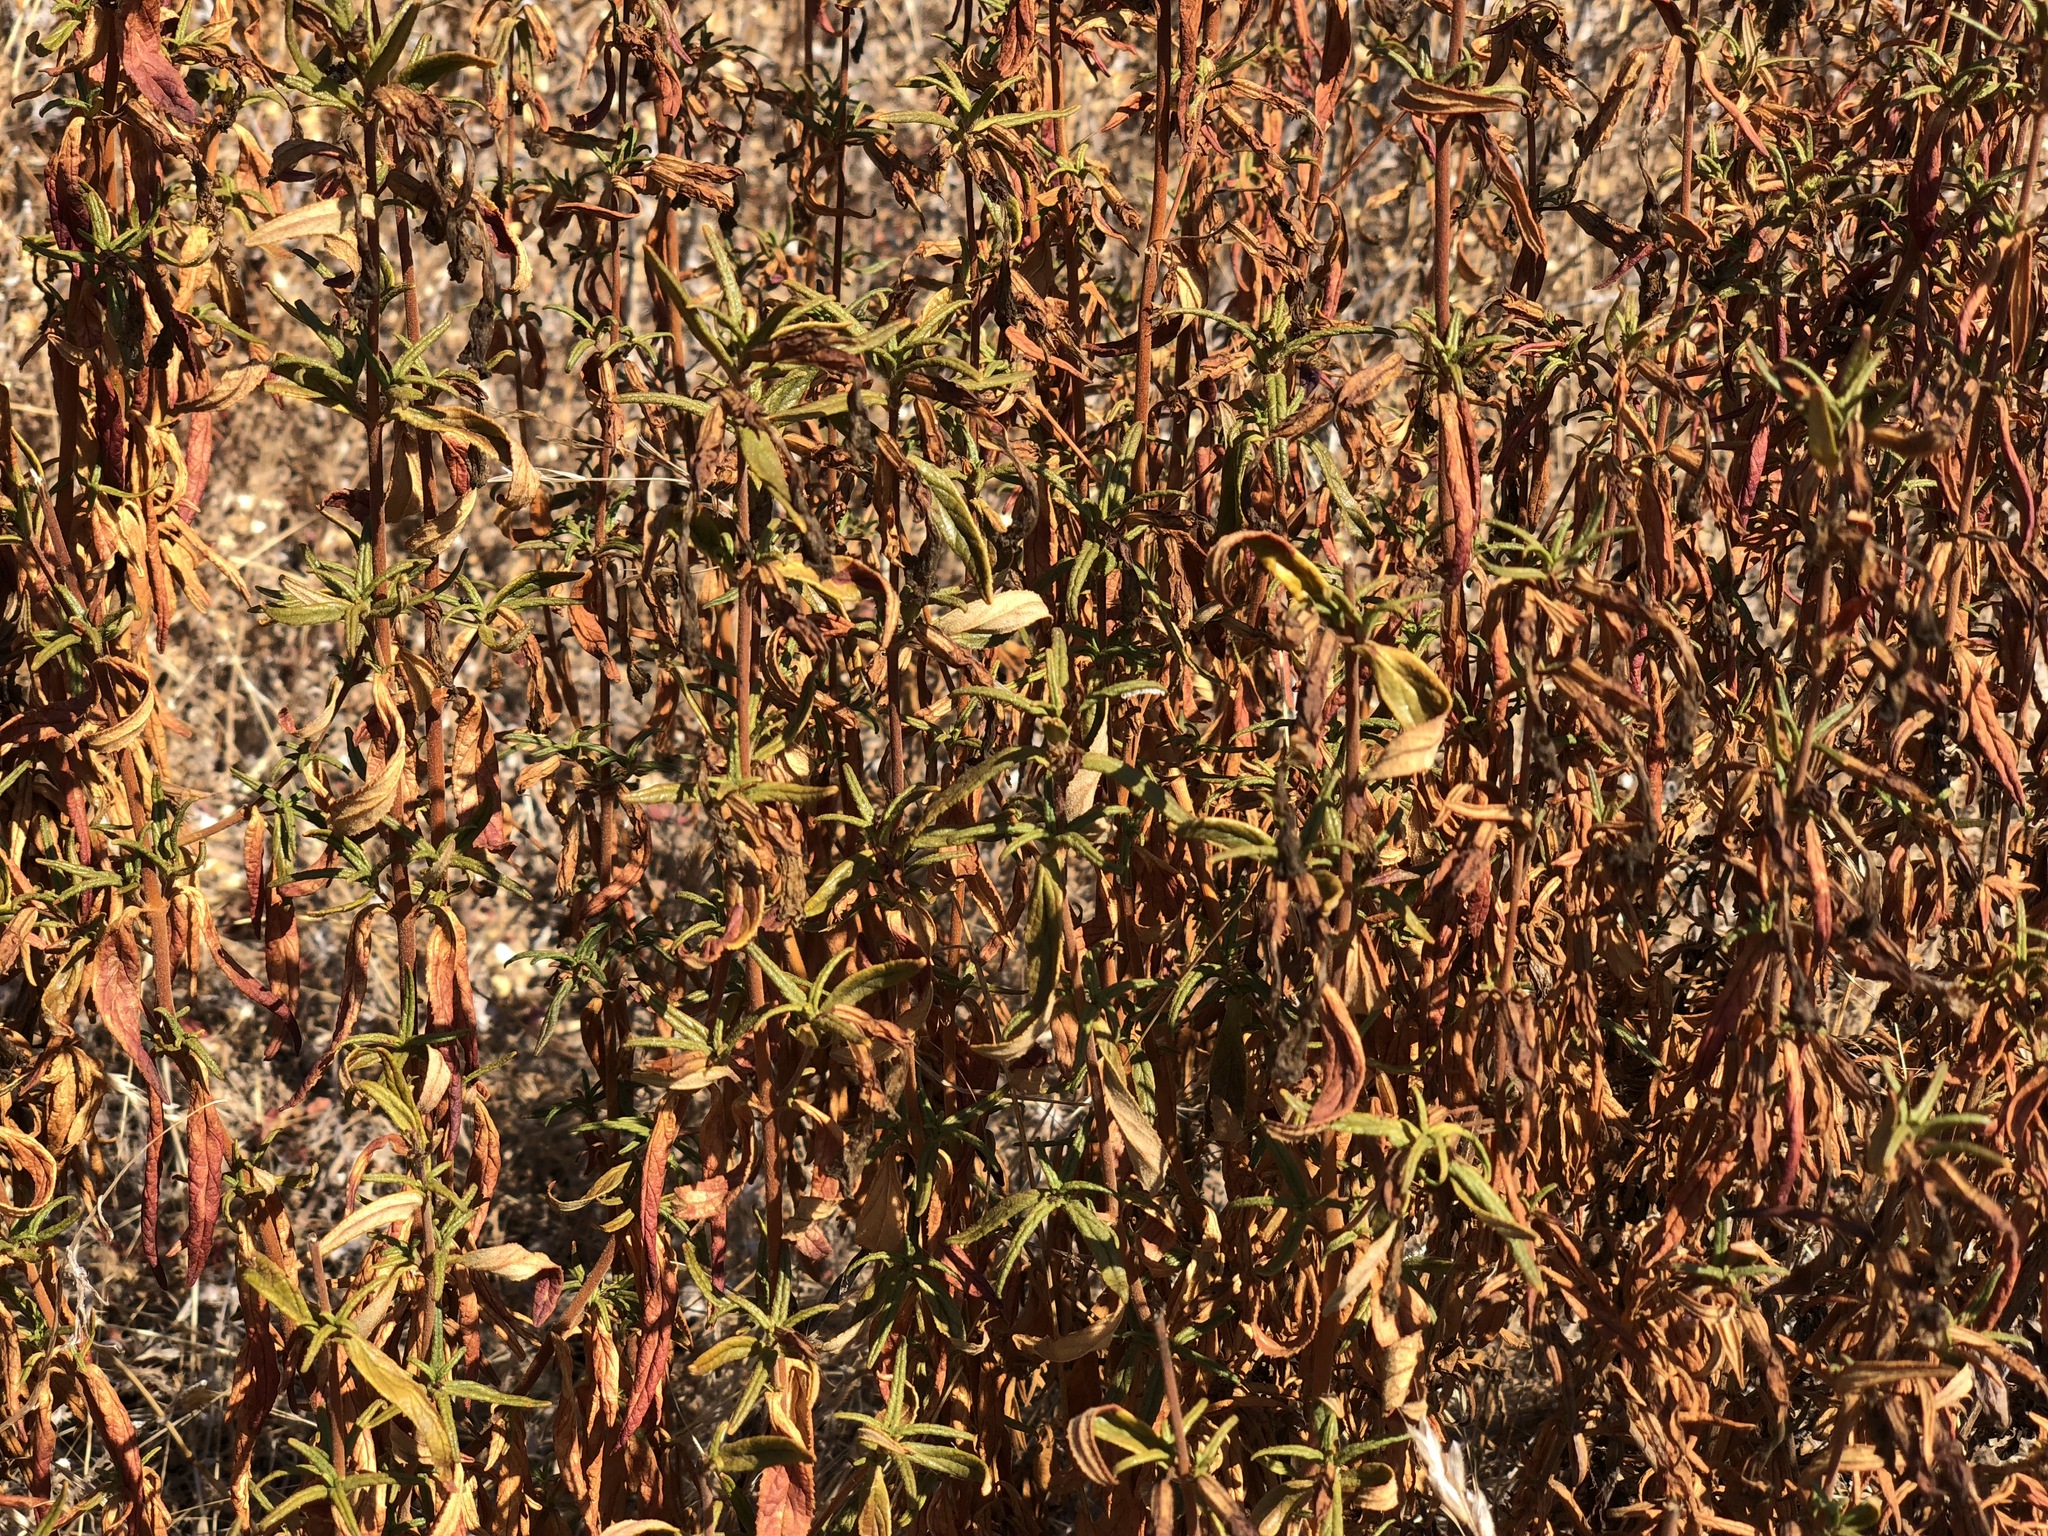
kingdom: Plantae
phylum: Tracheophyta
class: Magnoliopsida
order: Lamiales
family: Phrymaceae
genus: Diplacus
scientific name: Diplacus aurantiacus
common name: Bush monkey-flower
